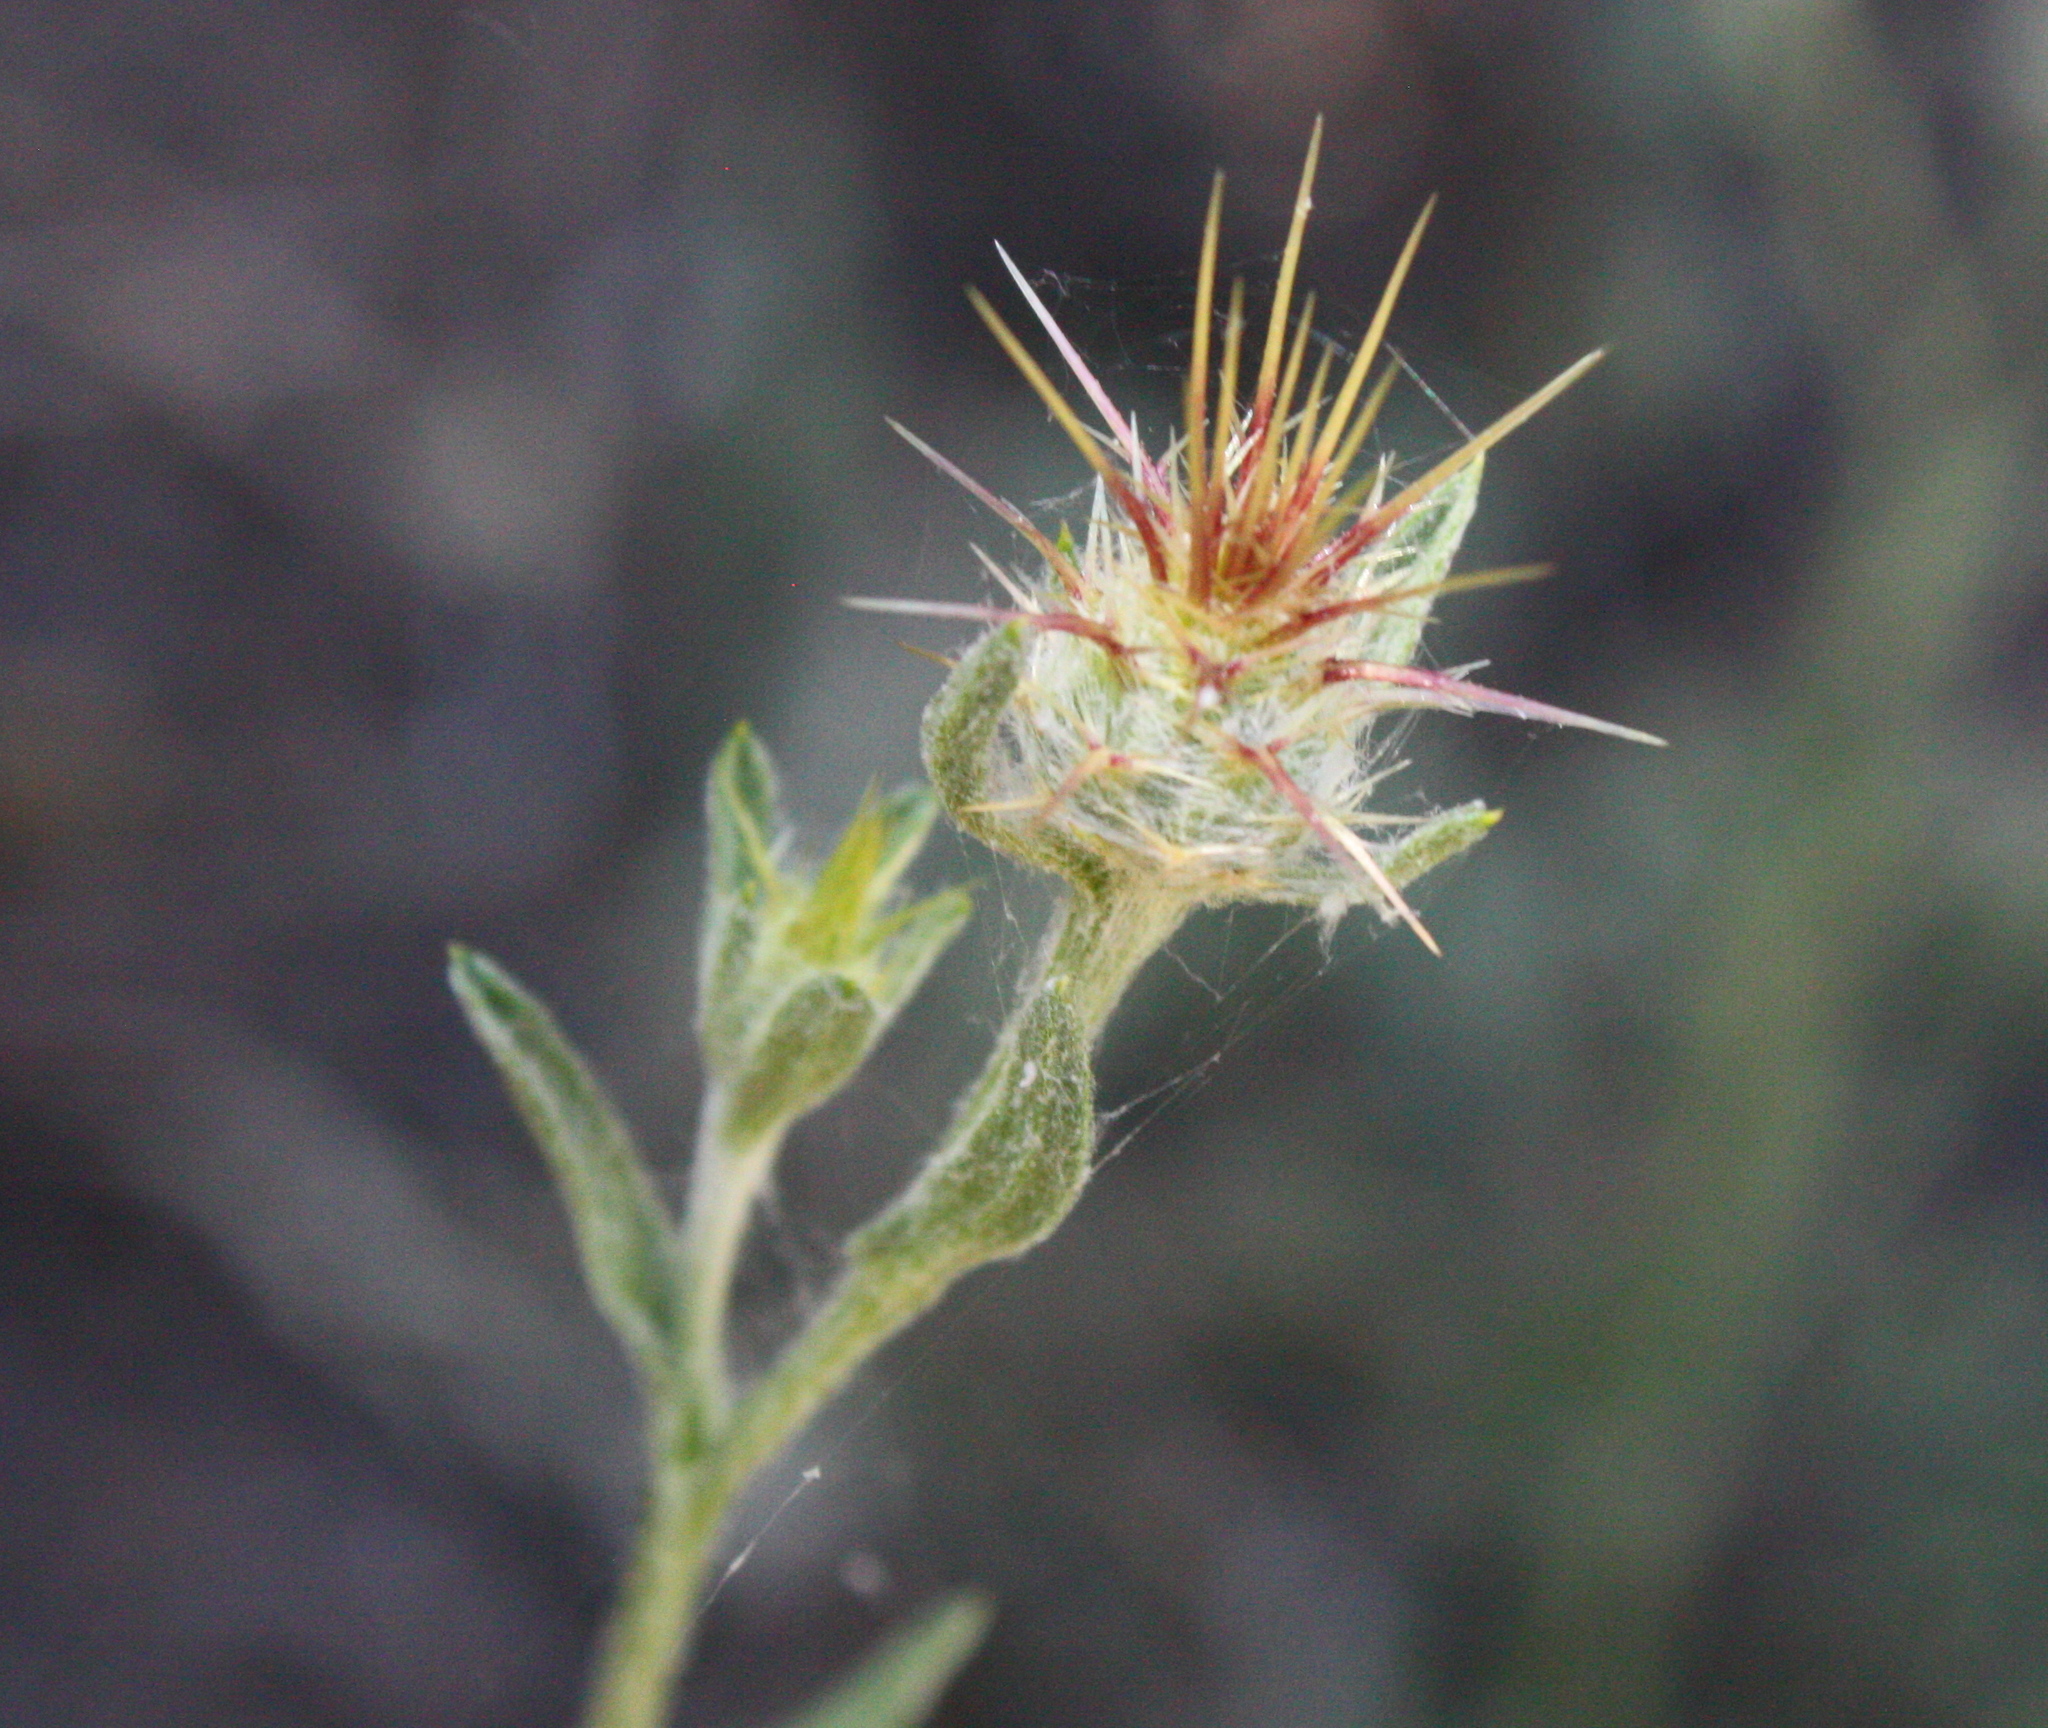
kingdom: Plantae
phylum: Tracheophyta
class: Magnoliopsida
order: Asterales
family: Asteraceae
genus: Centaurea
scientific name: Centaurea melitensis
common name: Maltese star-thistle
